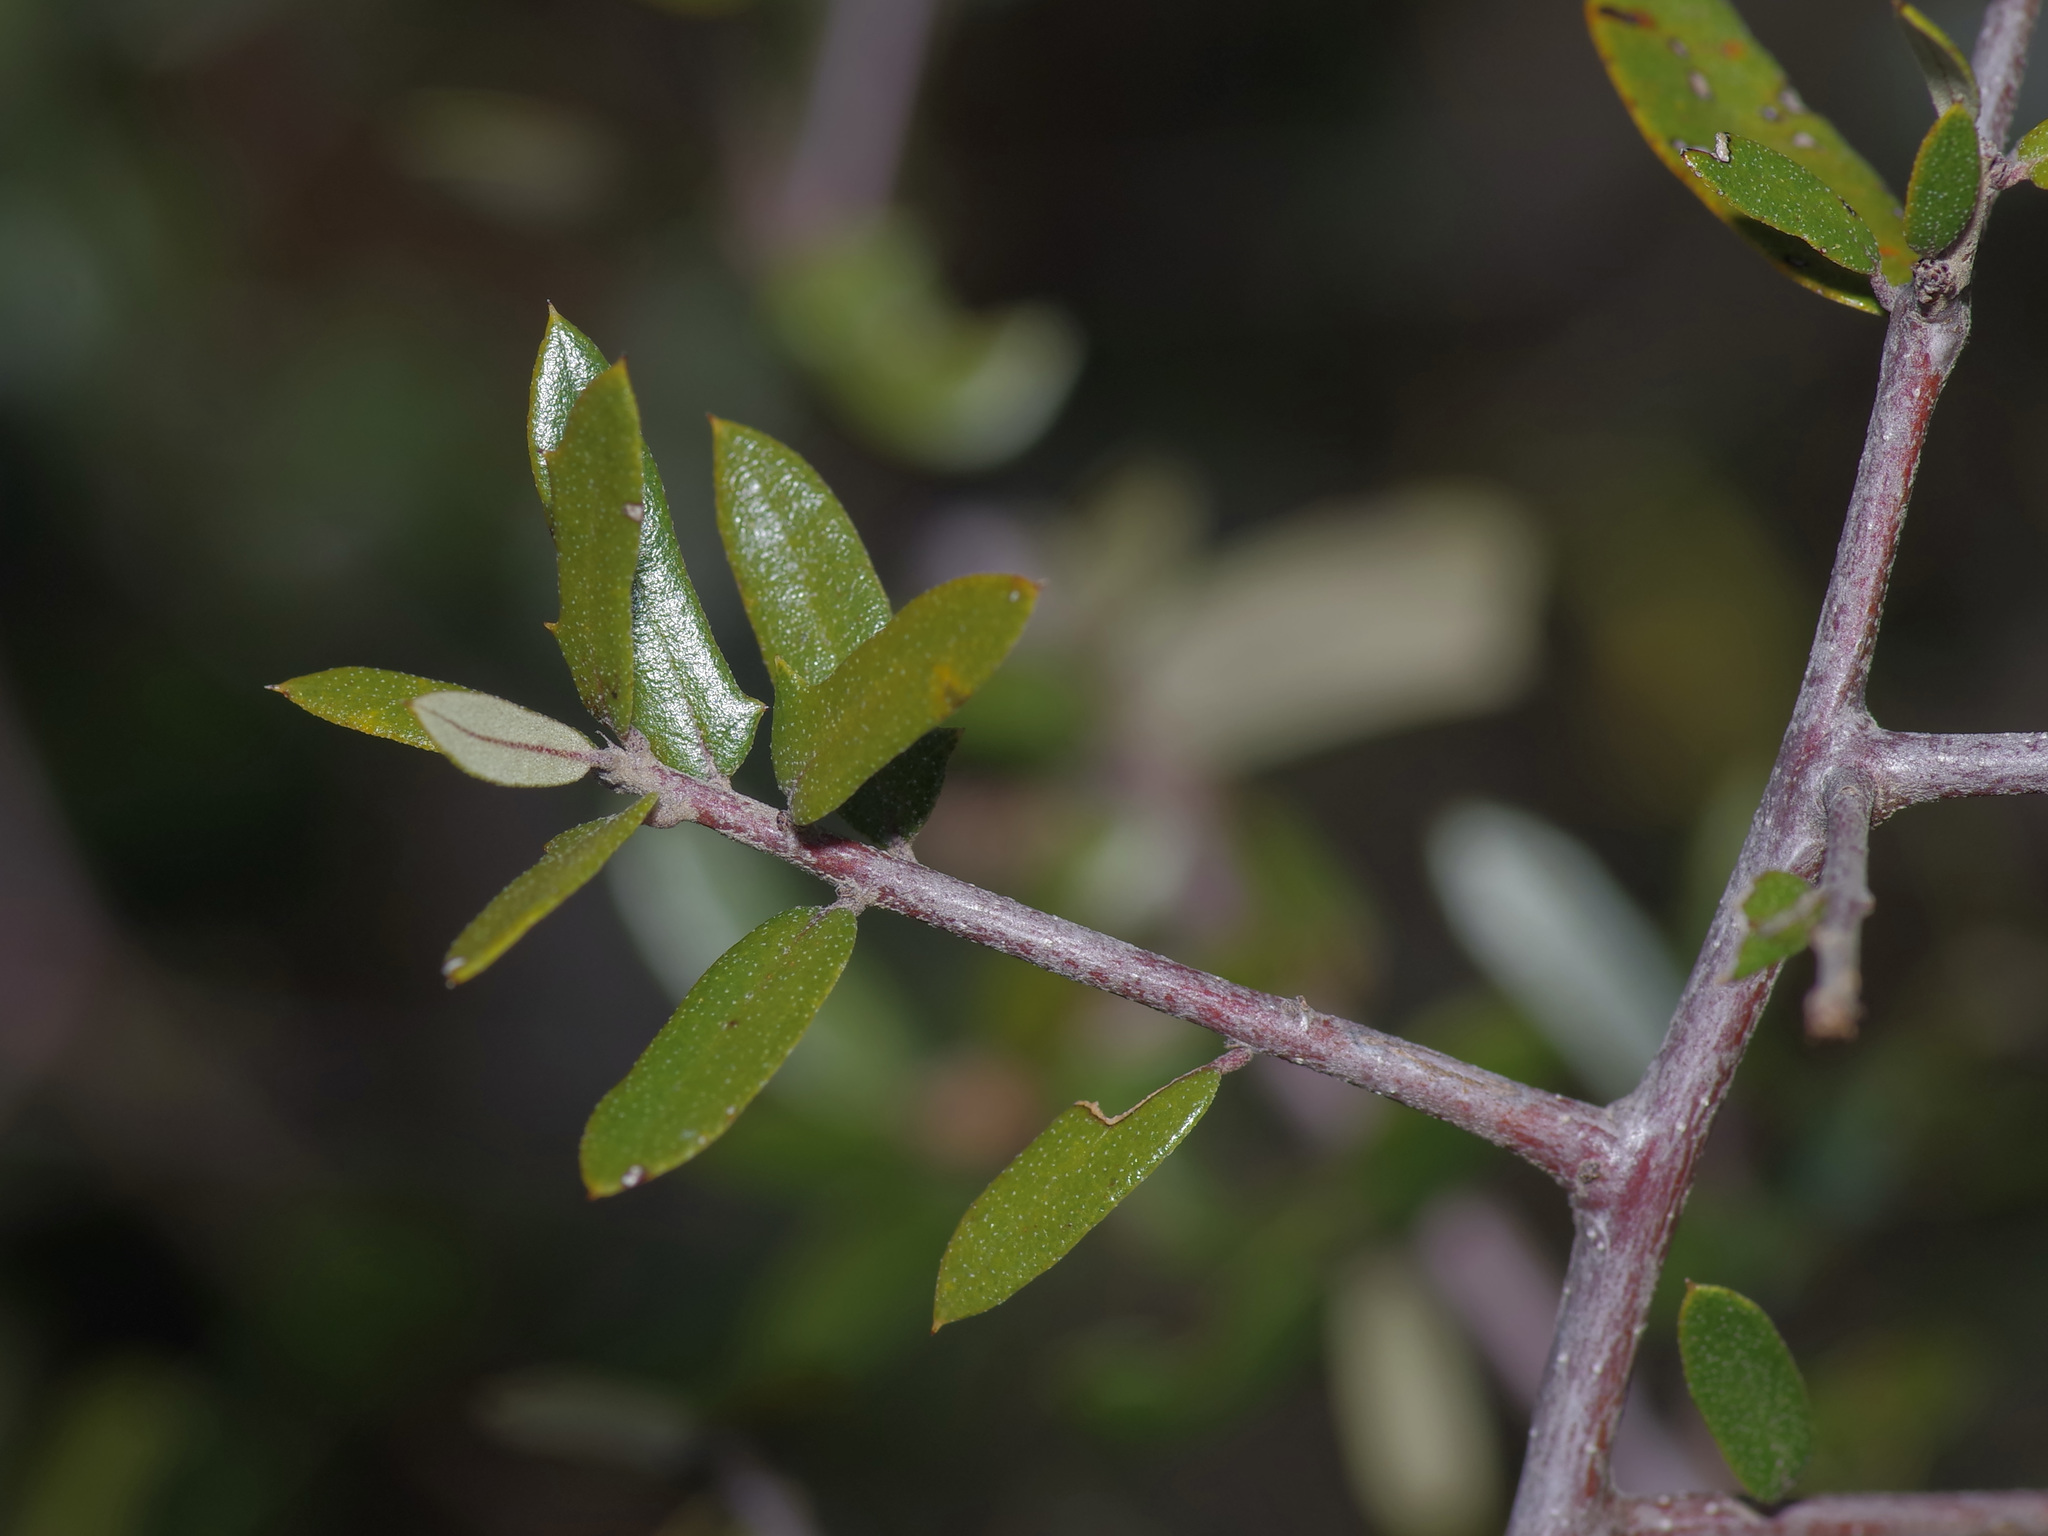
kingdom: Plantae
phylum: Tracheophyta
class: Magnoliopsida
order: Fagales
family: Fagaceae
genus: Quercus
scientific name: Quercus fusiformis
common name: Texas live oak
